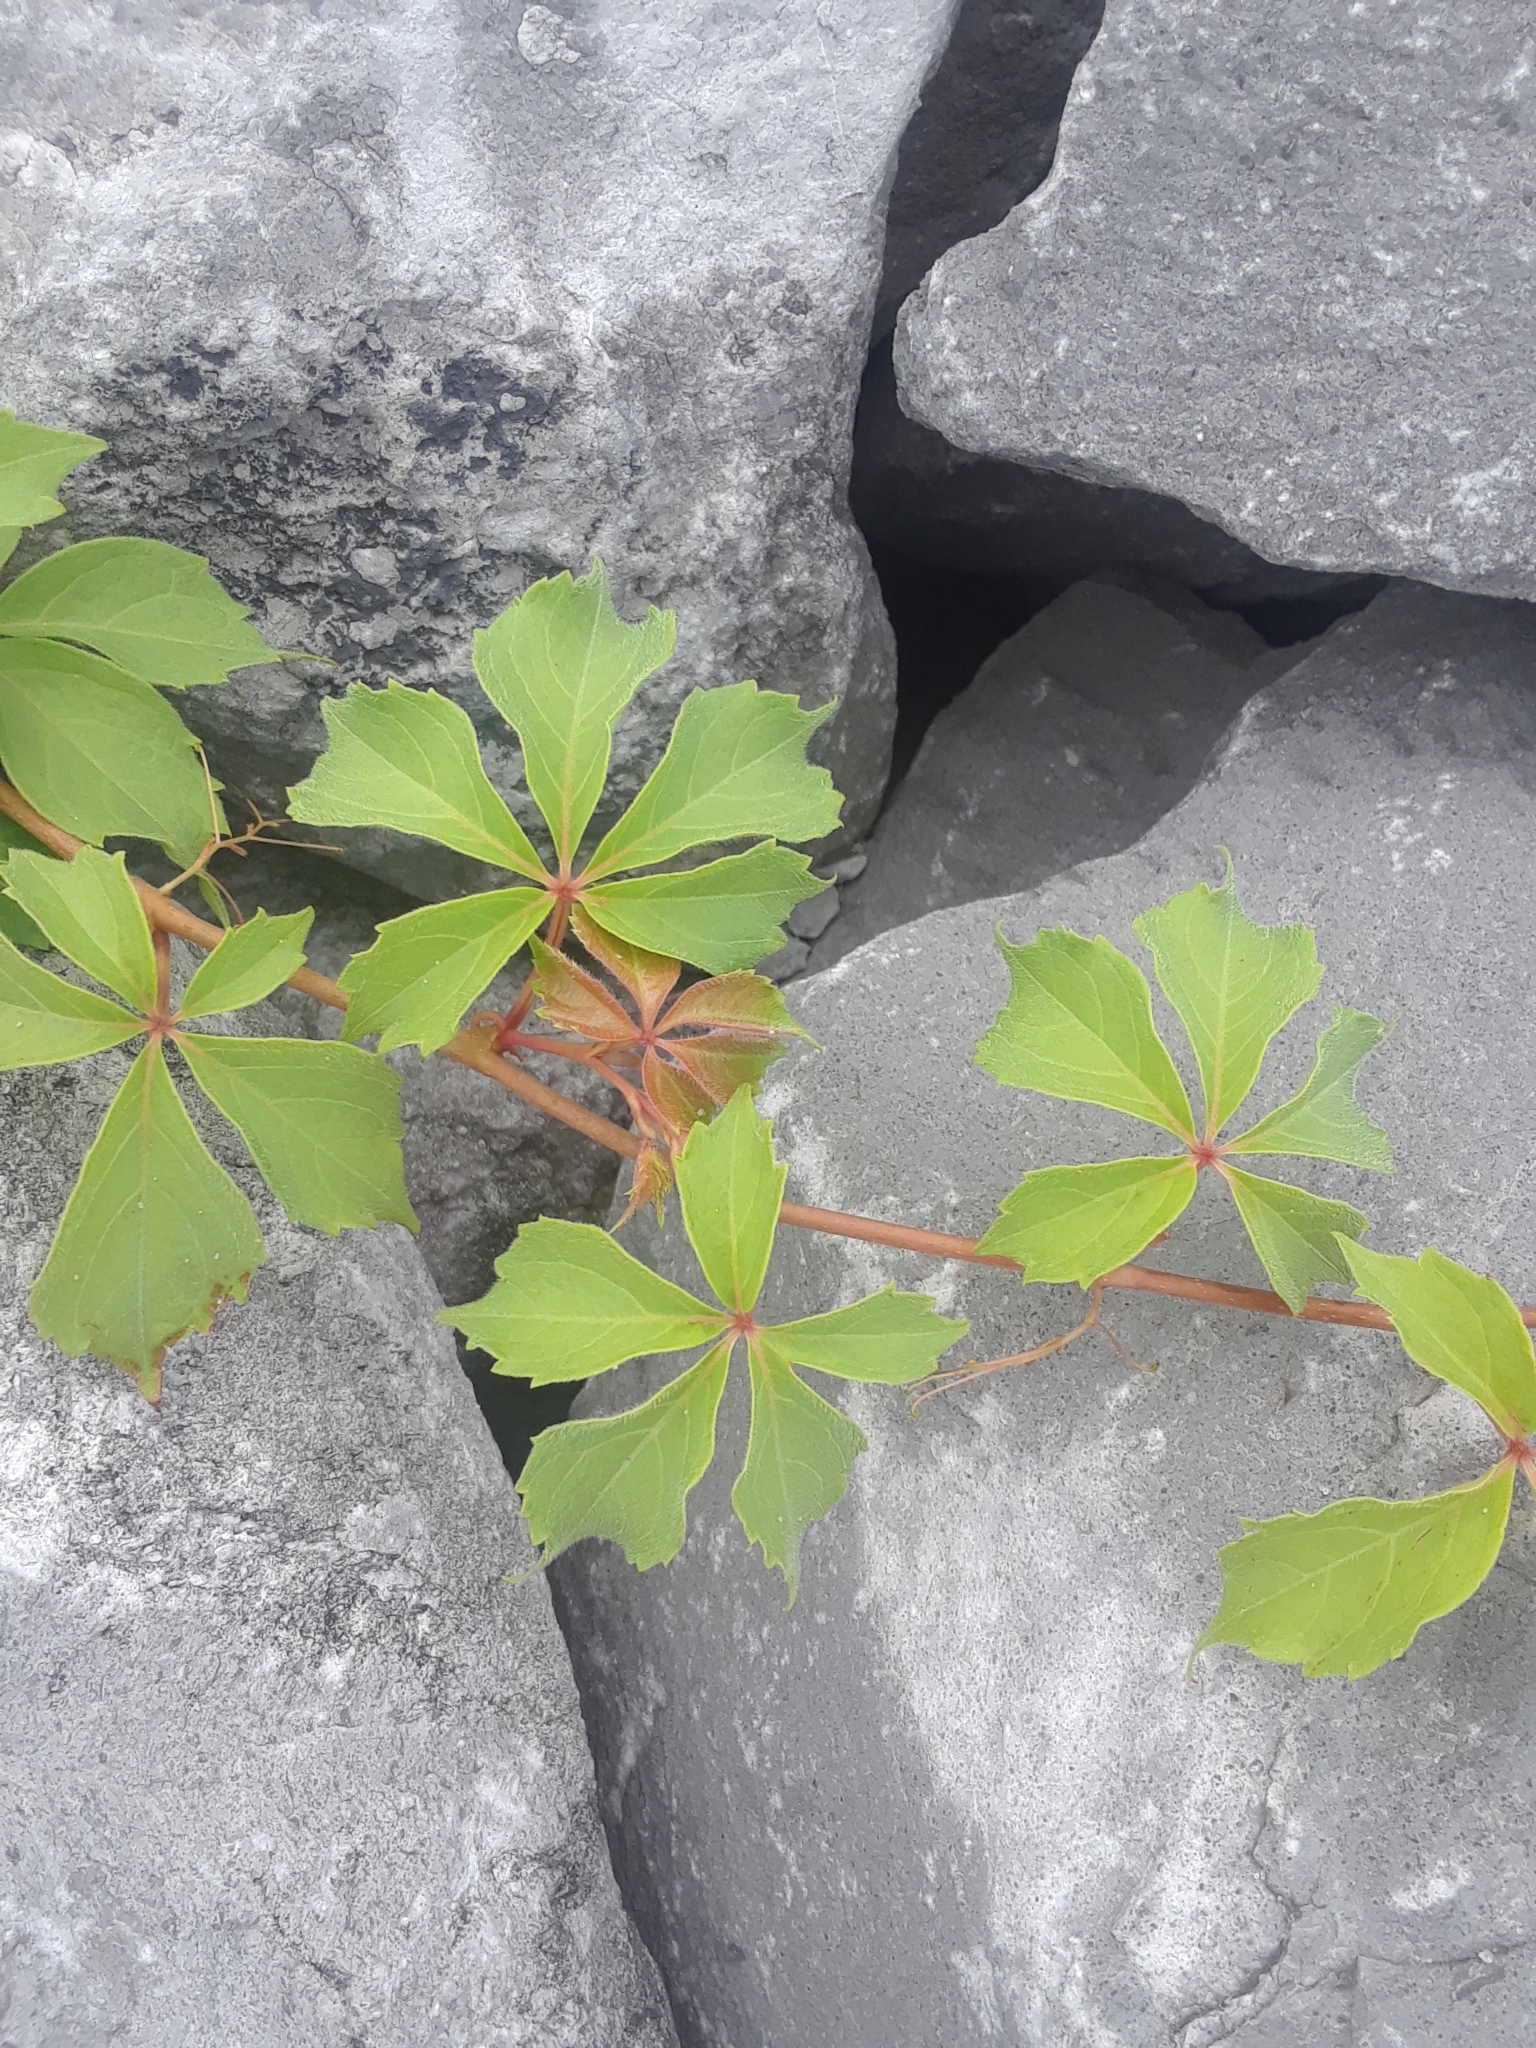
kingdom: Plantae
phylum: Tracheophyta
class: Magnoliopsida
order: Vitales
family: Vitaceae
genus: Parthenocissus
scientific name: Parthenocissus quinquefolia
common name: Virginia-creeper
